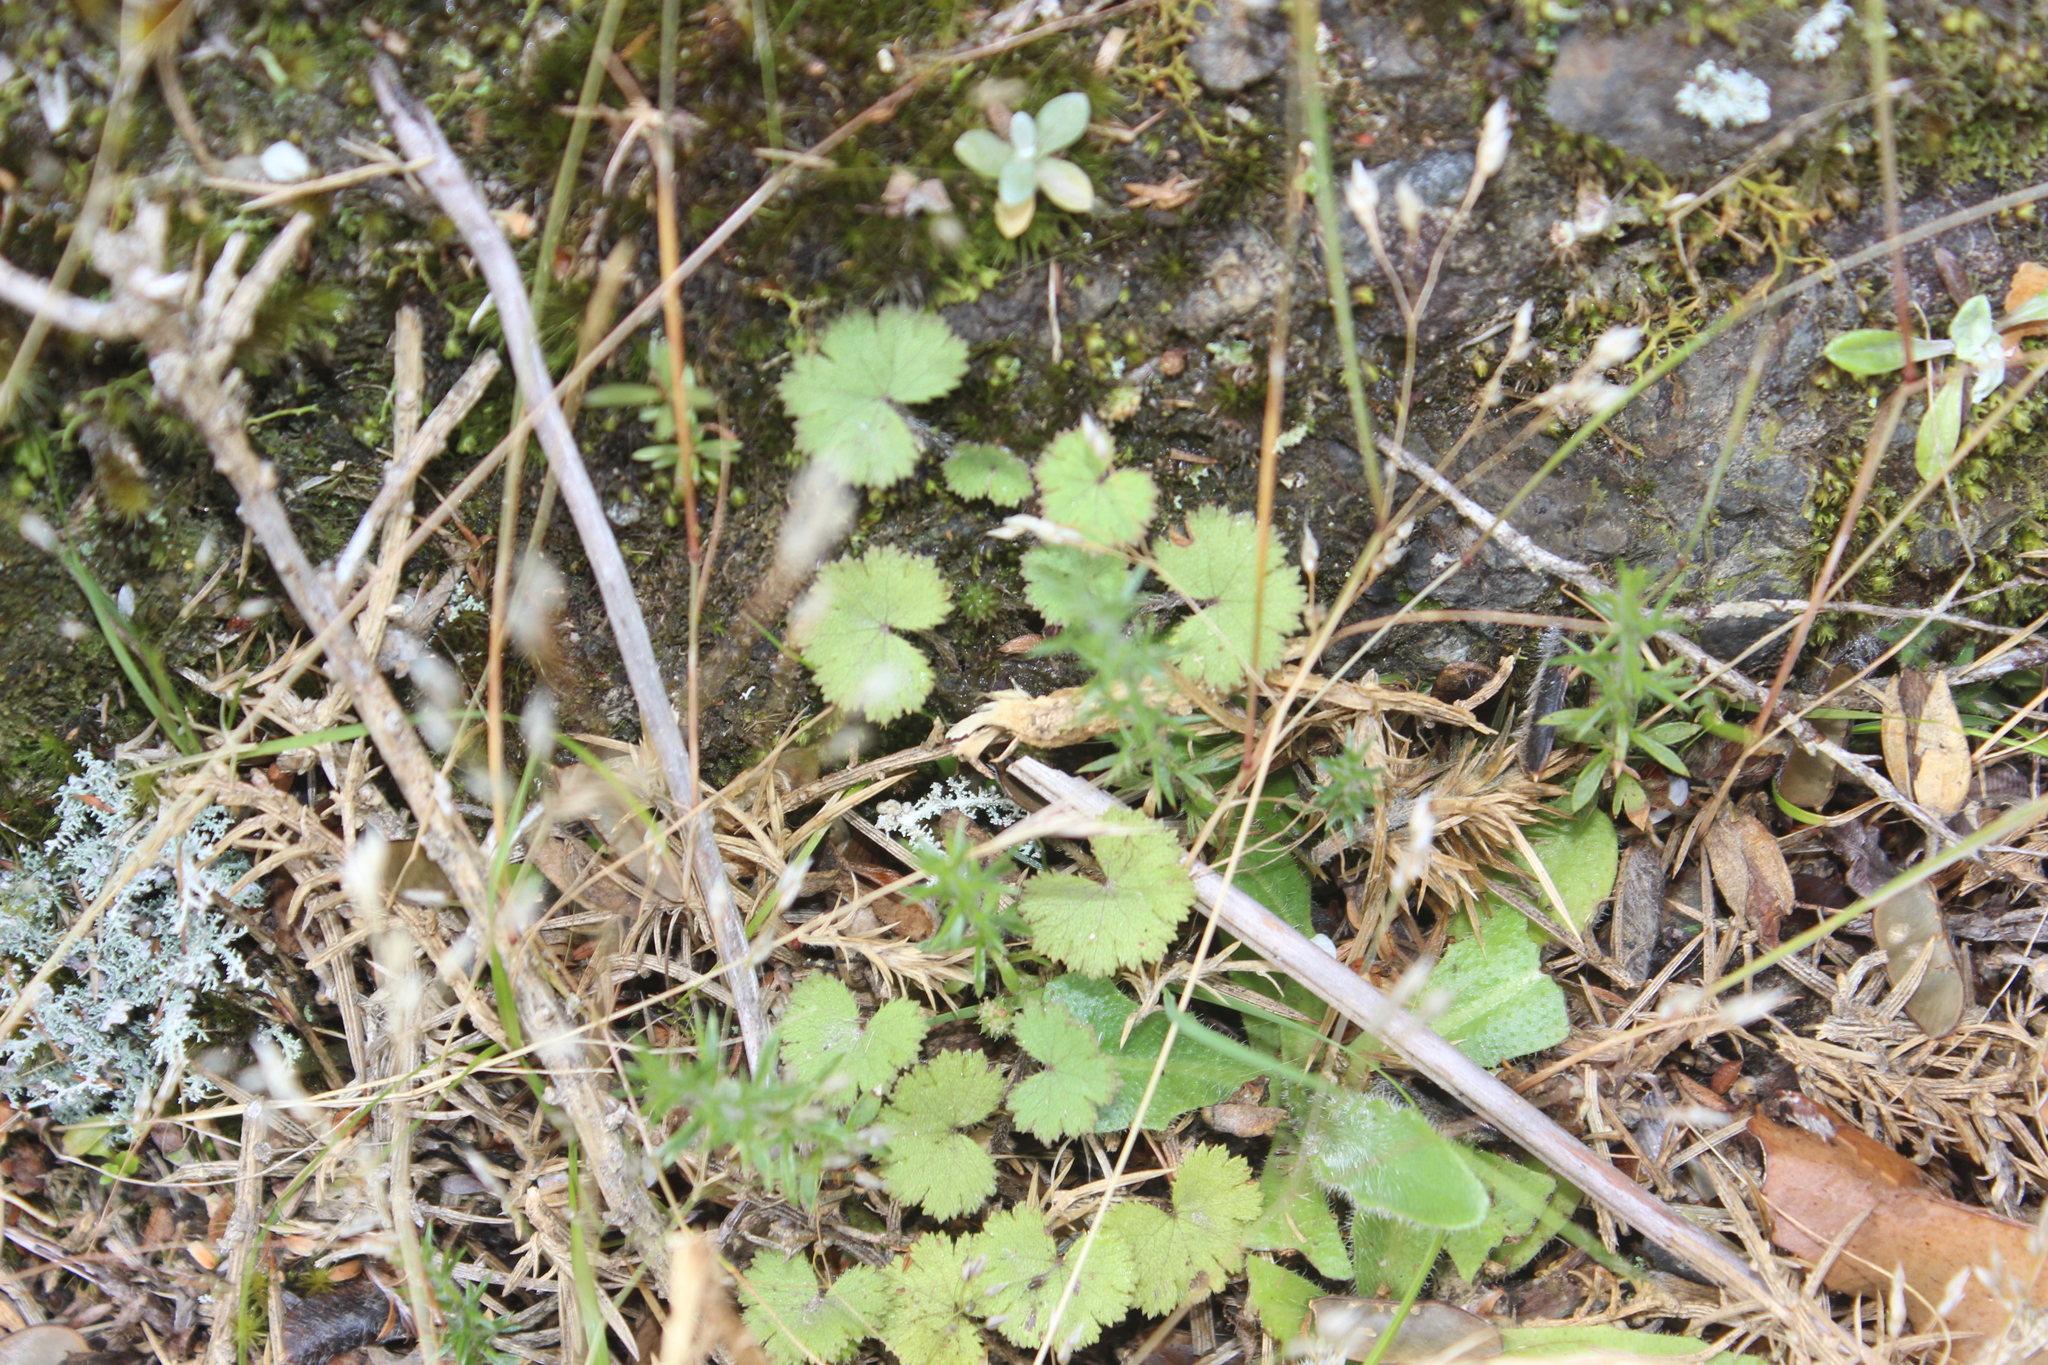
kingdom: Plantae
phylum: Tracheophyta
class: Magnoliopsida
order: Apiales
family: Araliaceae
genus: Hydrocotyle
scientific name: Hydrocotyle moschata
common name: Hairy pennywort
